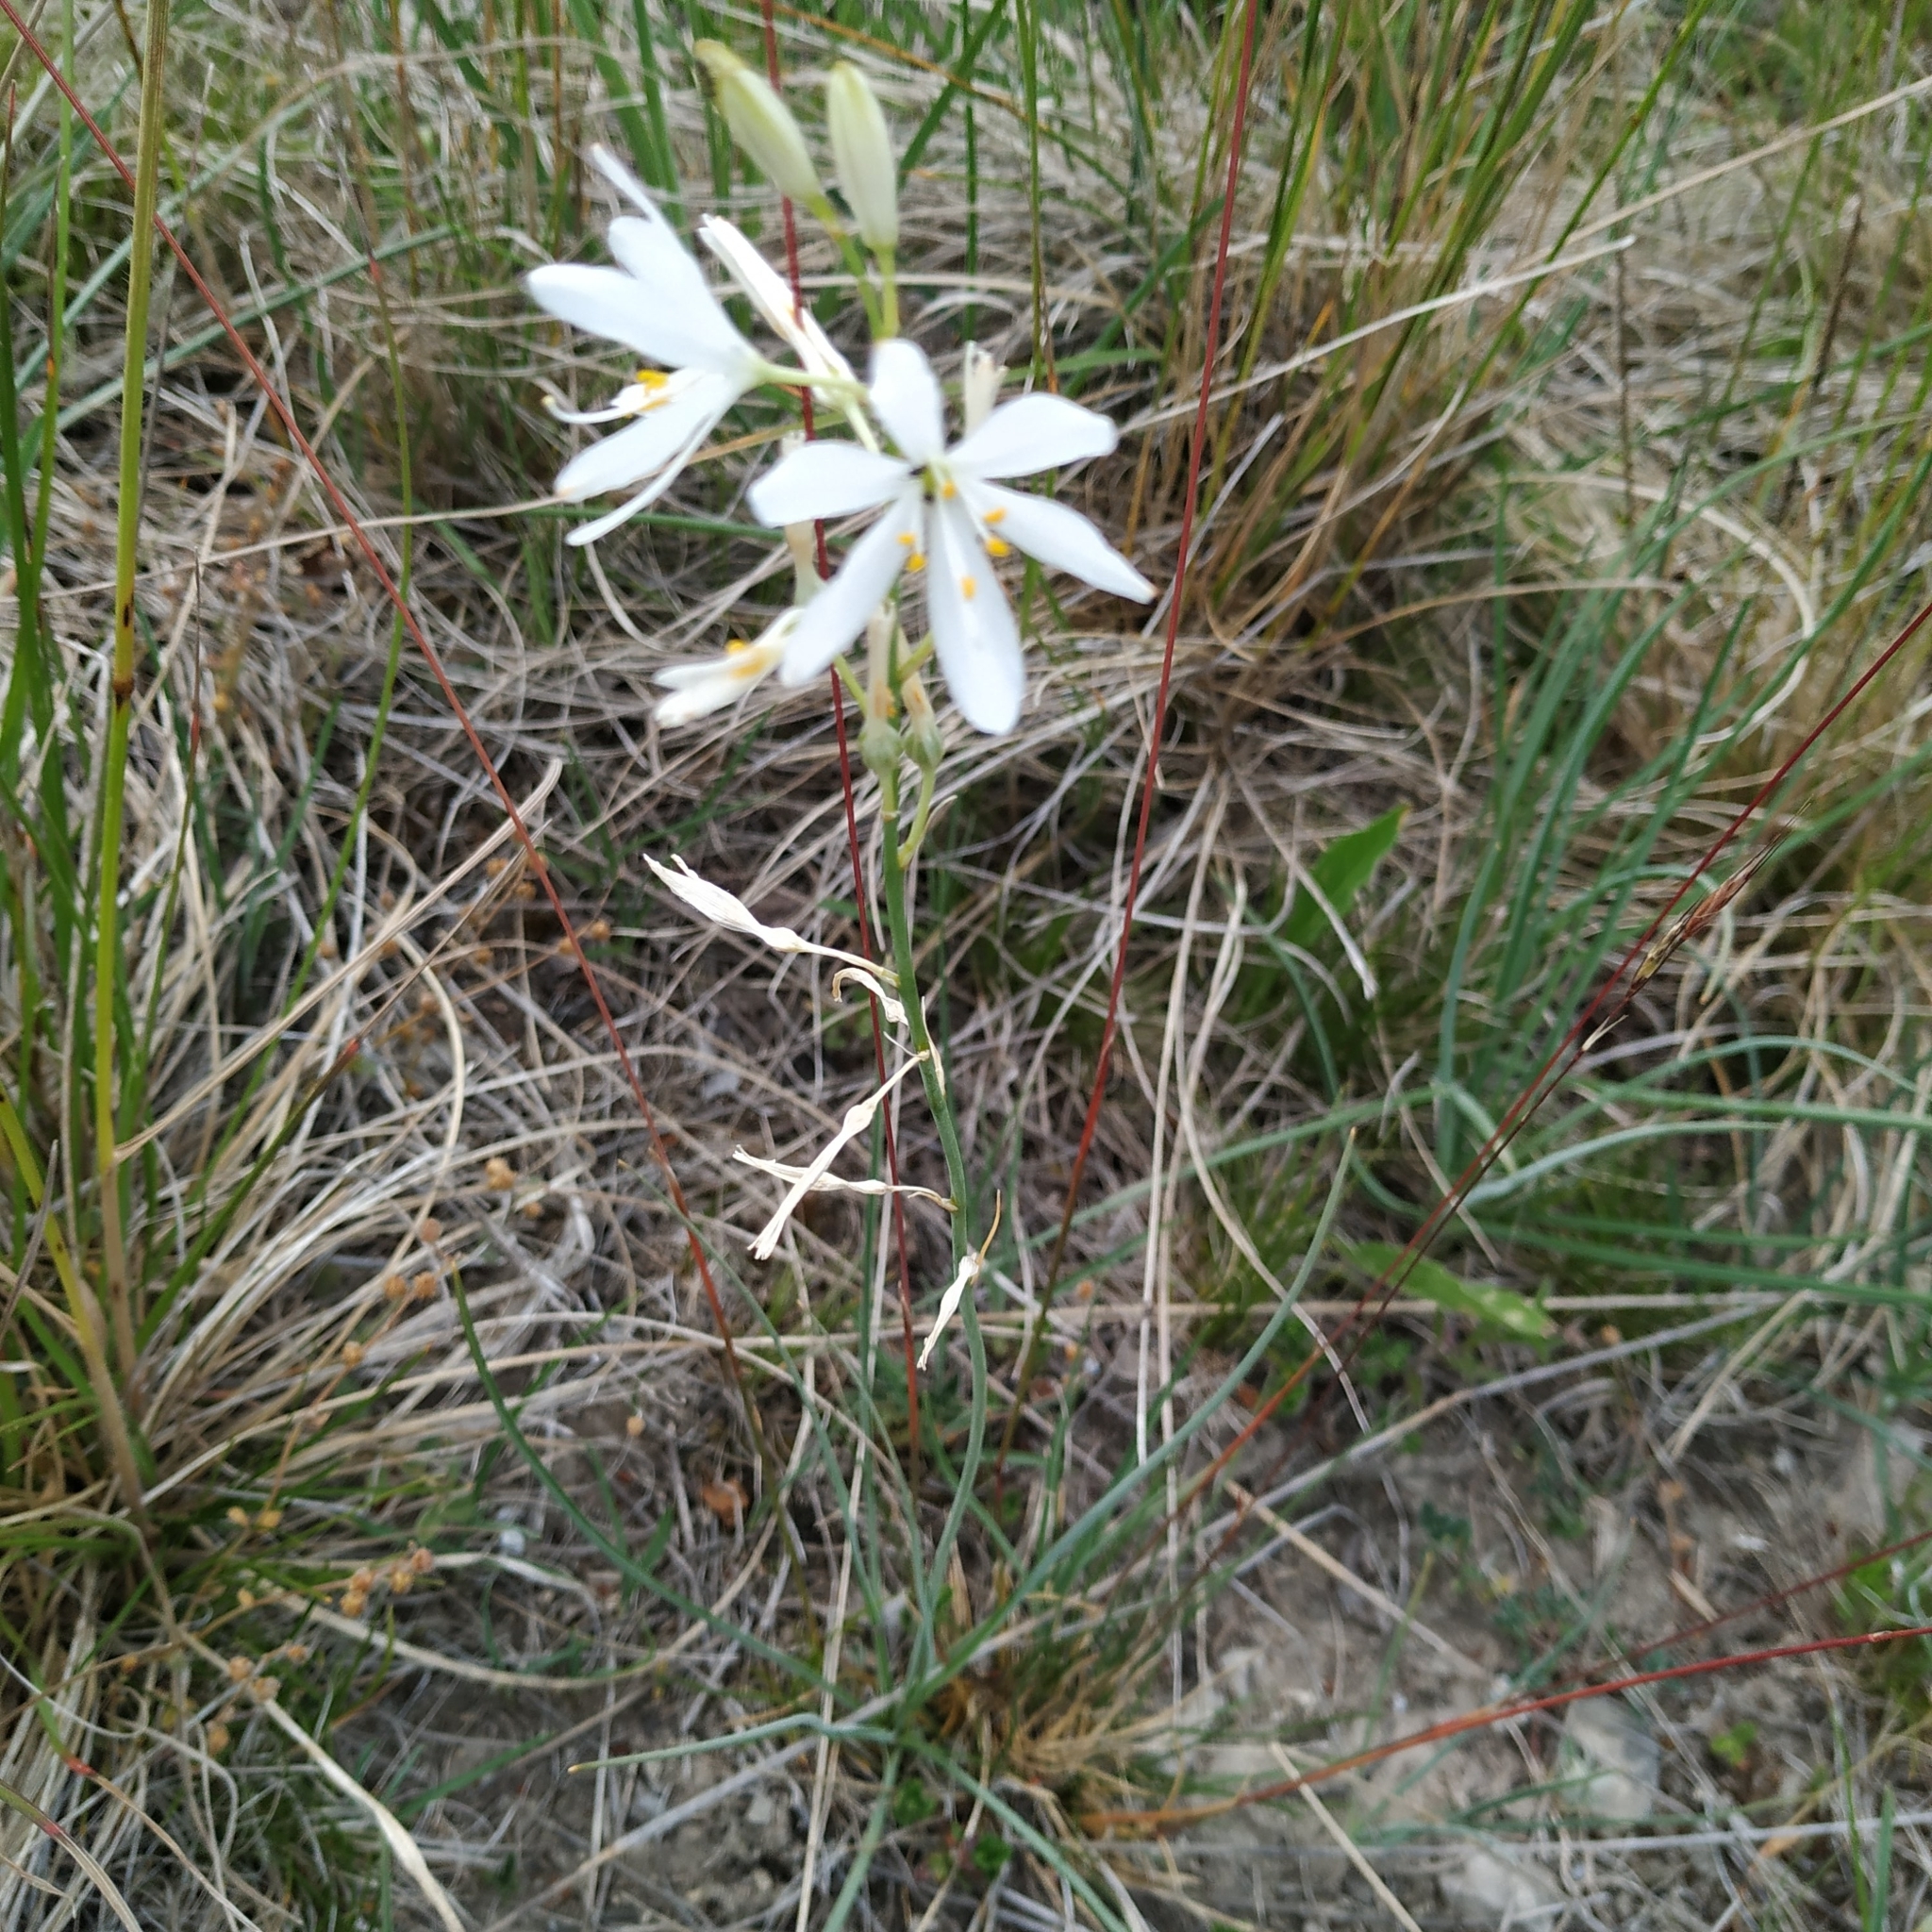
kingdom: Plantae
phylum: Tracheophyta
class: Liliopsida
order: Asparagales
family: Asparagaceae
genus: Anthericum
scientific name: Anthericum liliago
